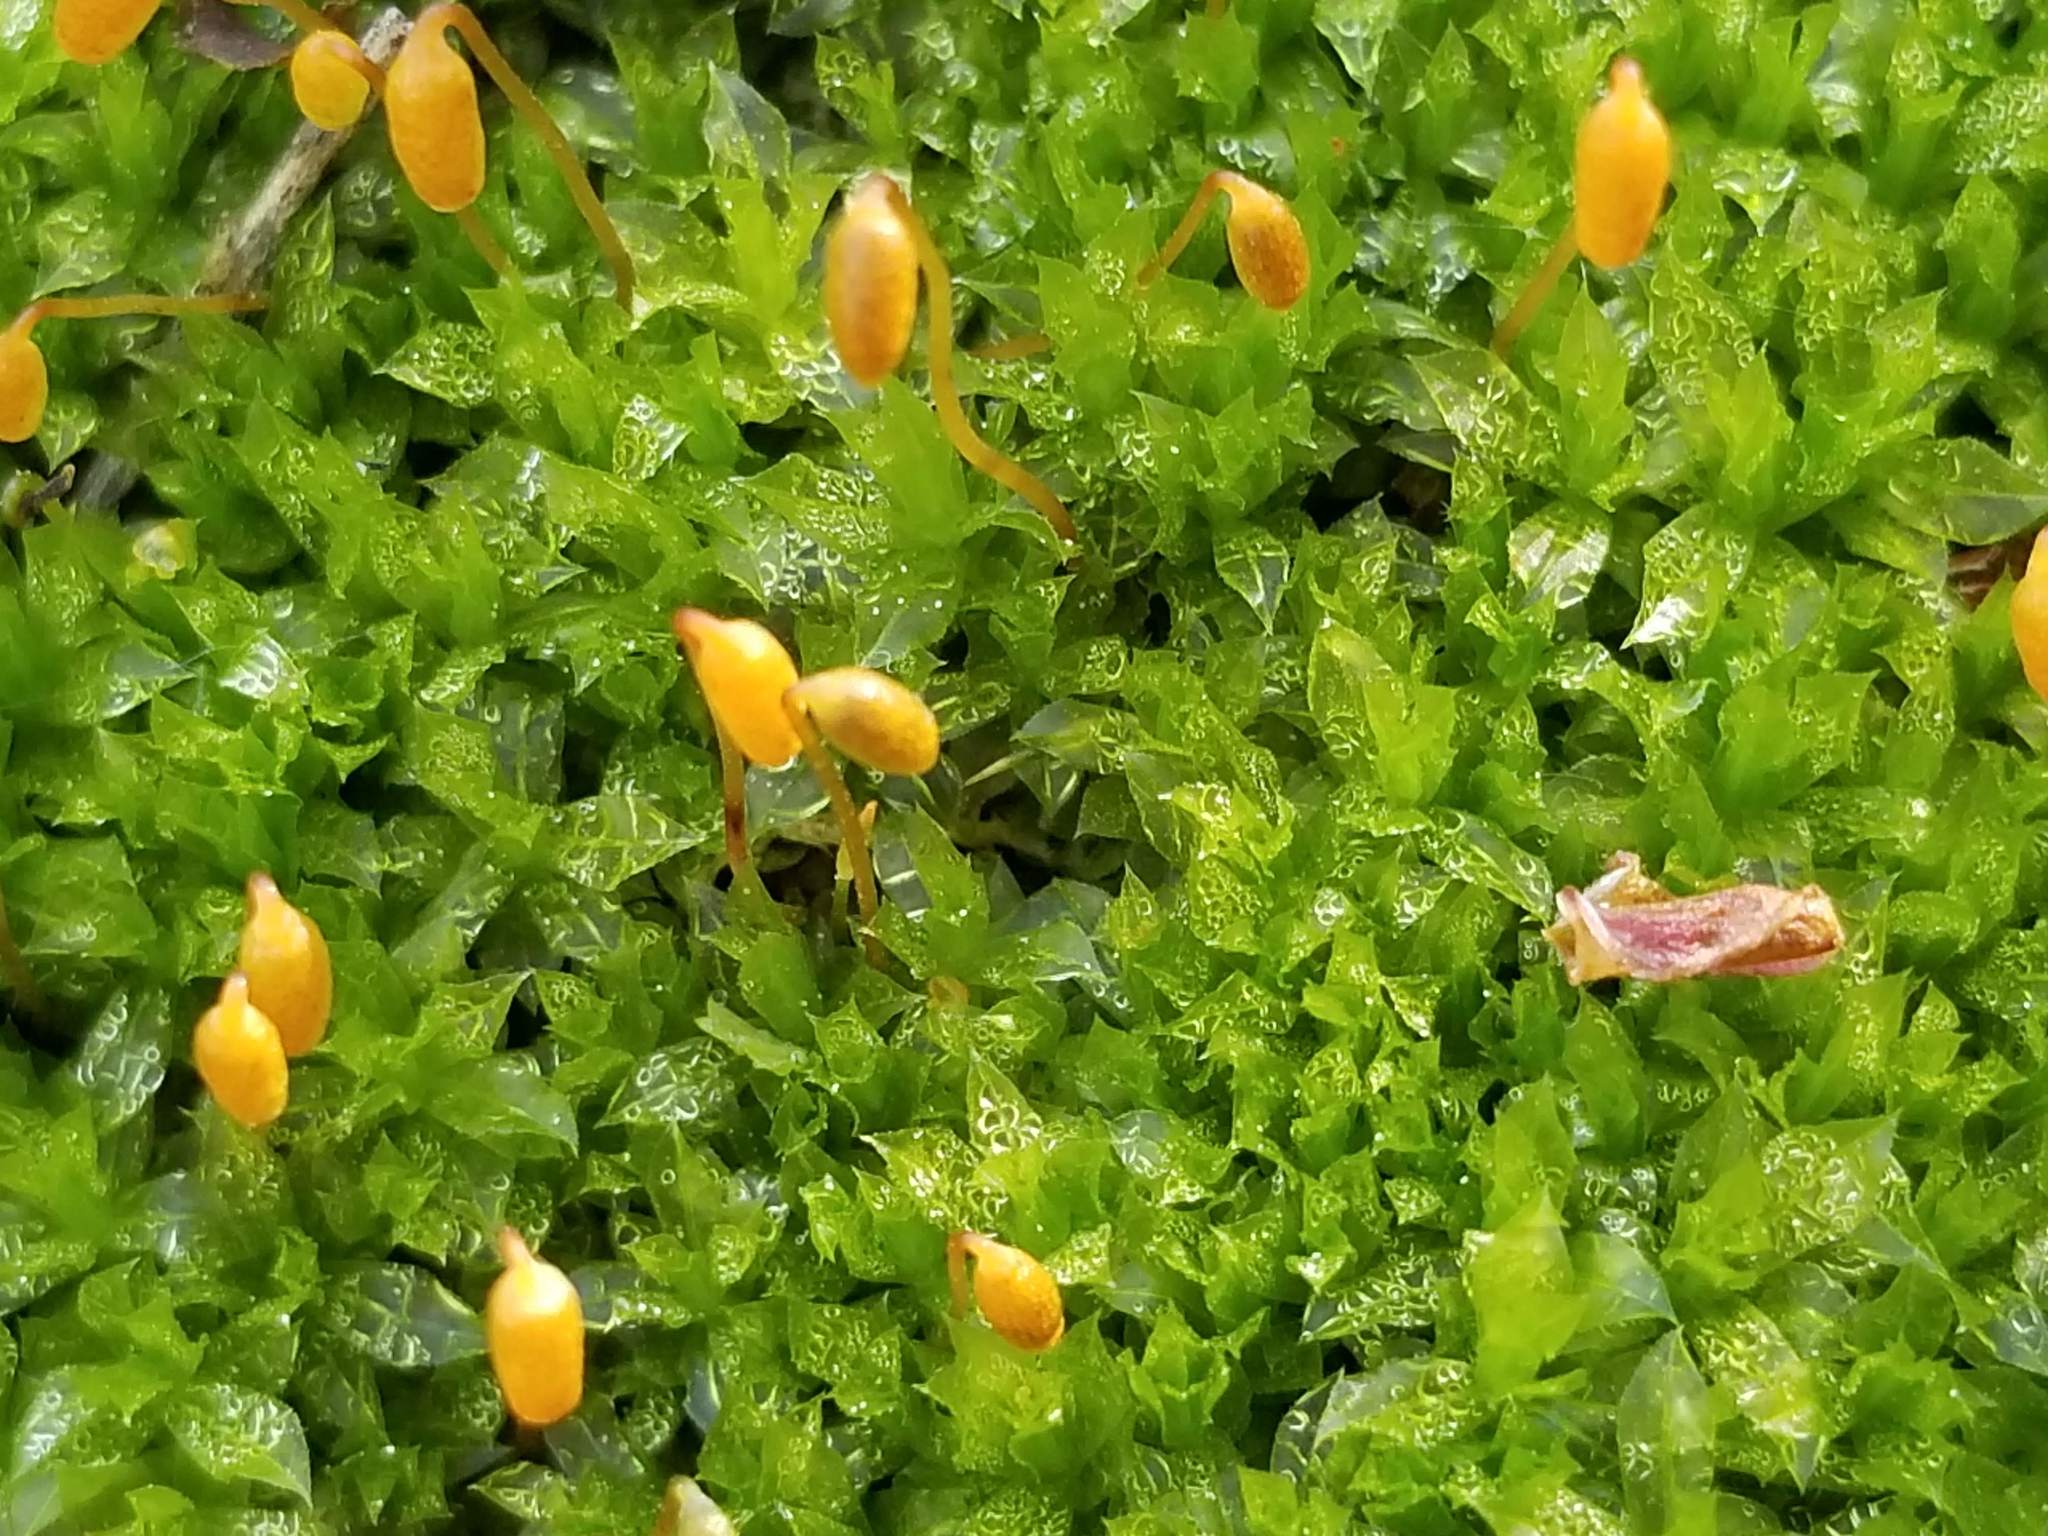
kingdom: Plantae
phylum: Bryophyta
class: Bryopsida
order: Bryales
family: Mniaceae
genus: Plagiomnium
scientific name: Plagiomnium cuspidatum
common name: Woodsy leafy moss
